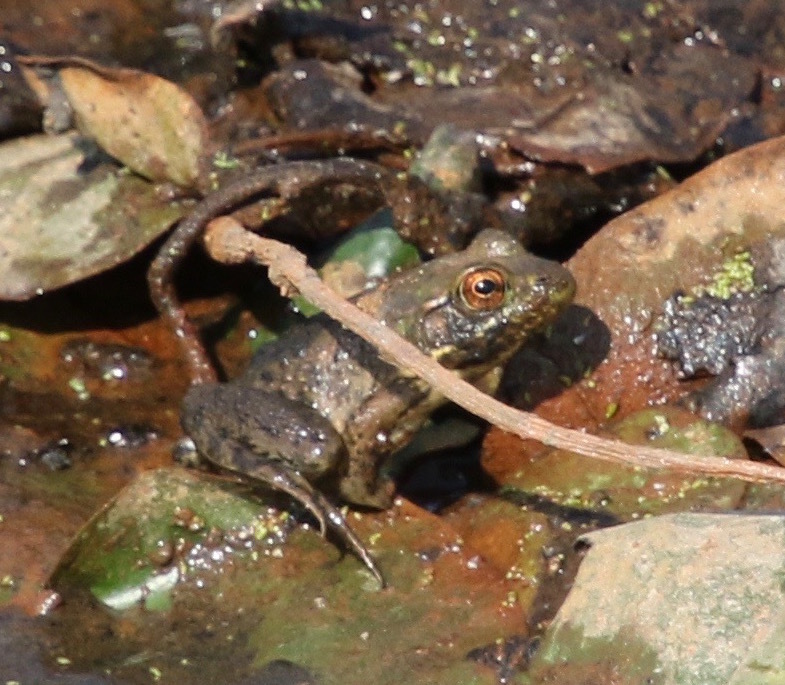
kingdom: Animalia
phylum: Chordata
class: Amphibia
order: Anura
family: Ranidae
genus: Lithobates
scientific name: Lithobates catesbeianus
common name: American bullfrog
